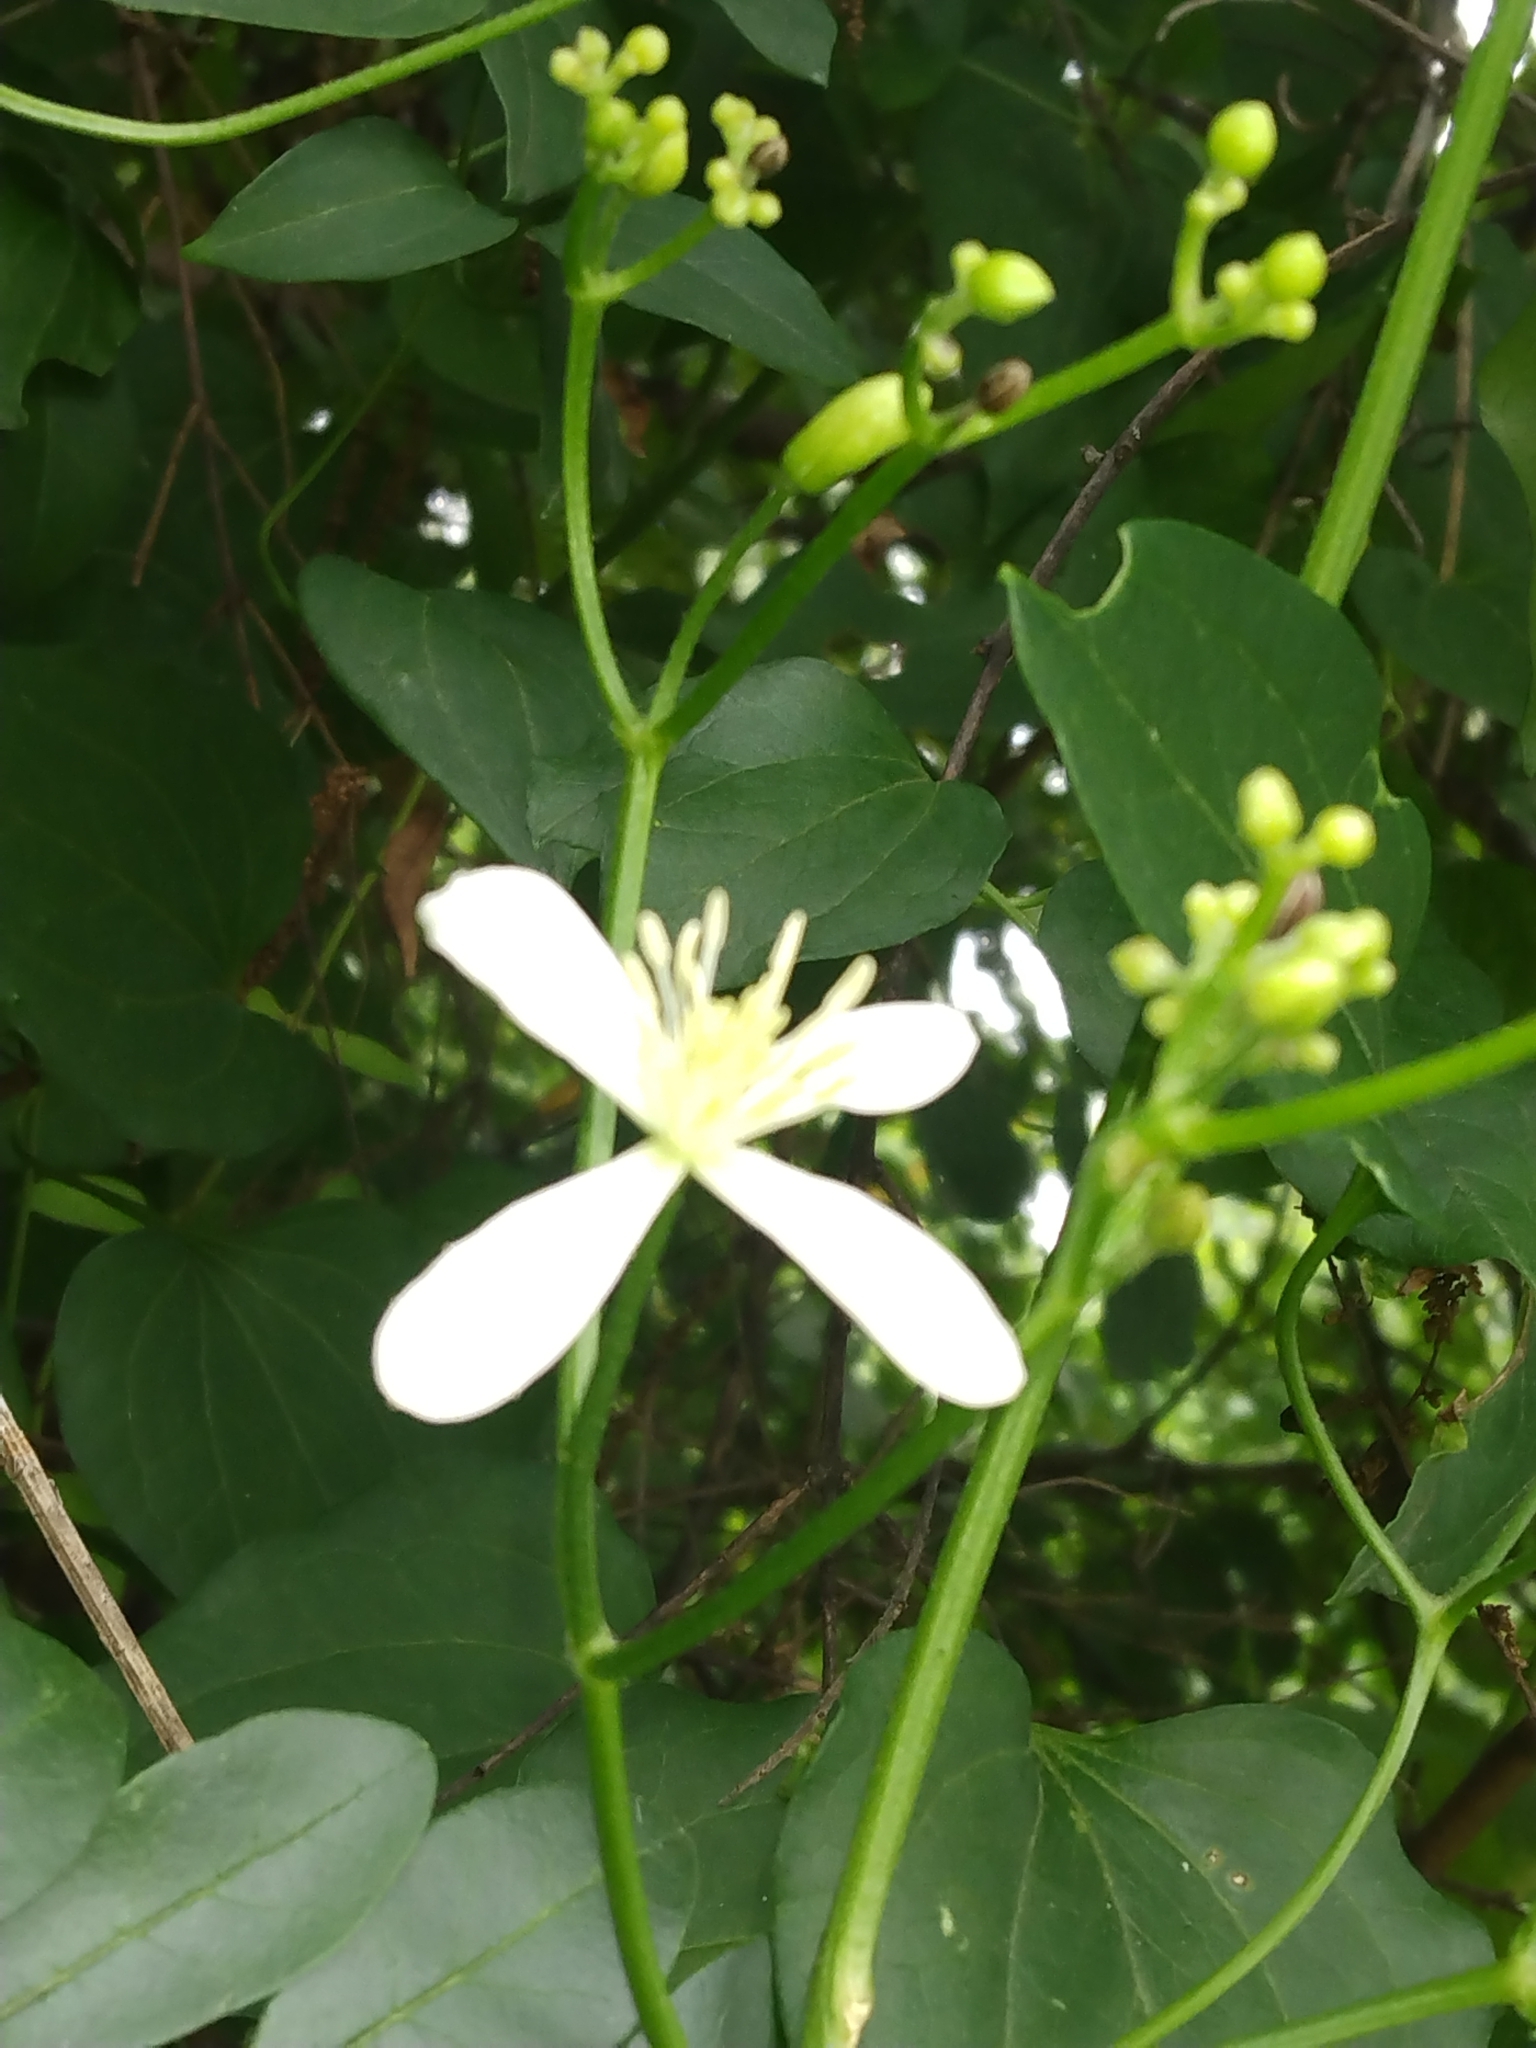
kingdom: Plantae
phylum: Tracheophyta
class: Magnoliopsida
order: Ranunculales
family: Ranunculaceae
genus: Clematis
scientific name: Clematis terniflora
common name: Sweet autumn clematis
